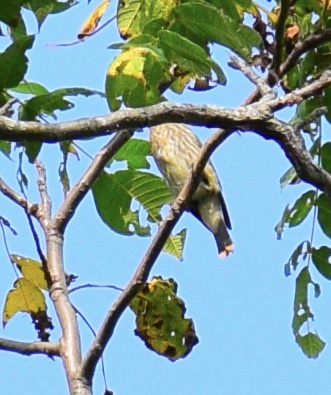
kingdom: Animalia
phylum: Chordata
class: Aves
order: Passeriformes
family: Bombycillidae
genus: Bombycilla
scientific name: Bombycilla cedrorum
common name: Cedar waxwing
